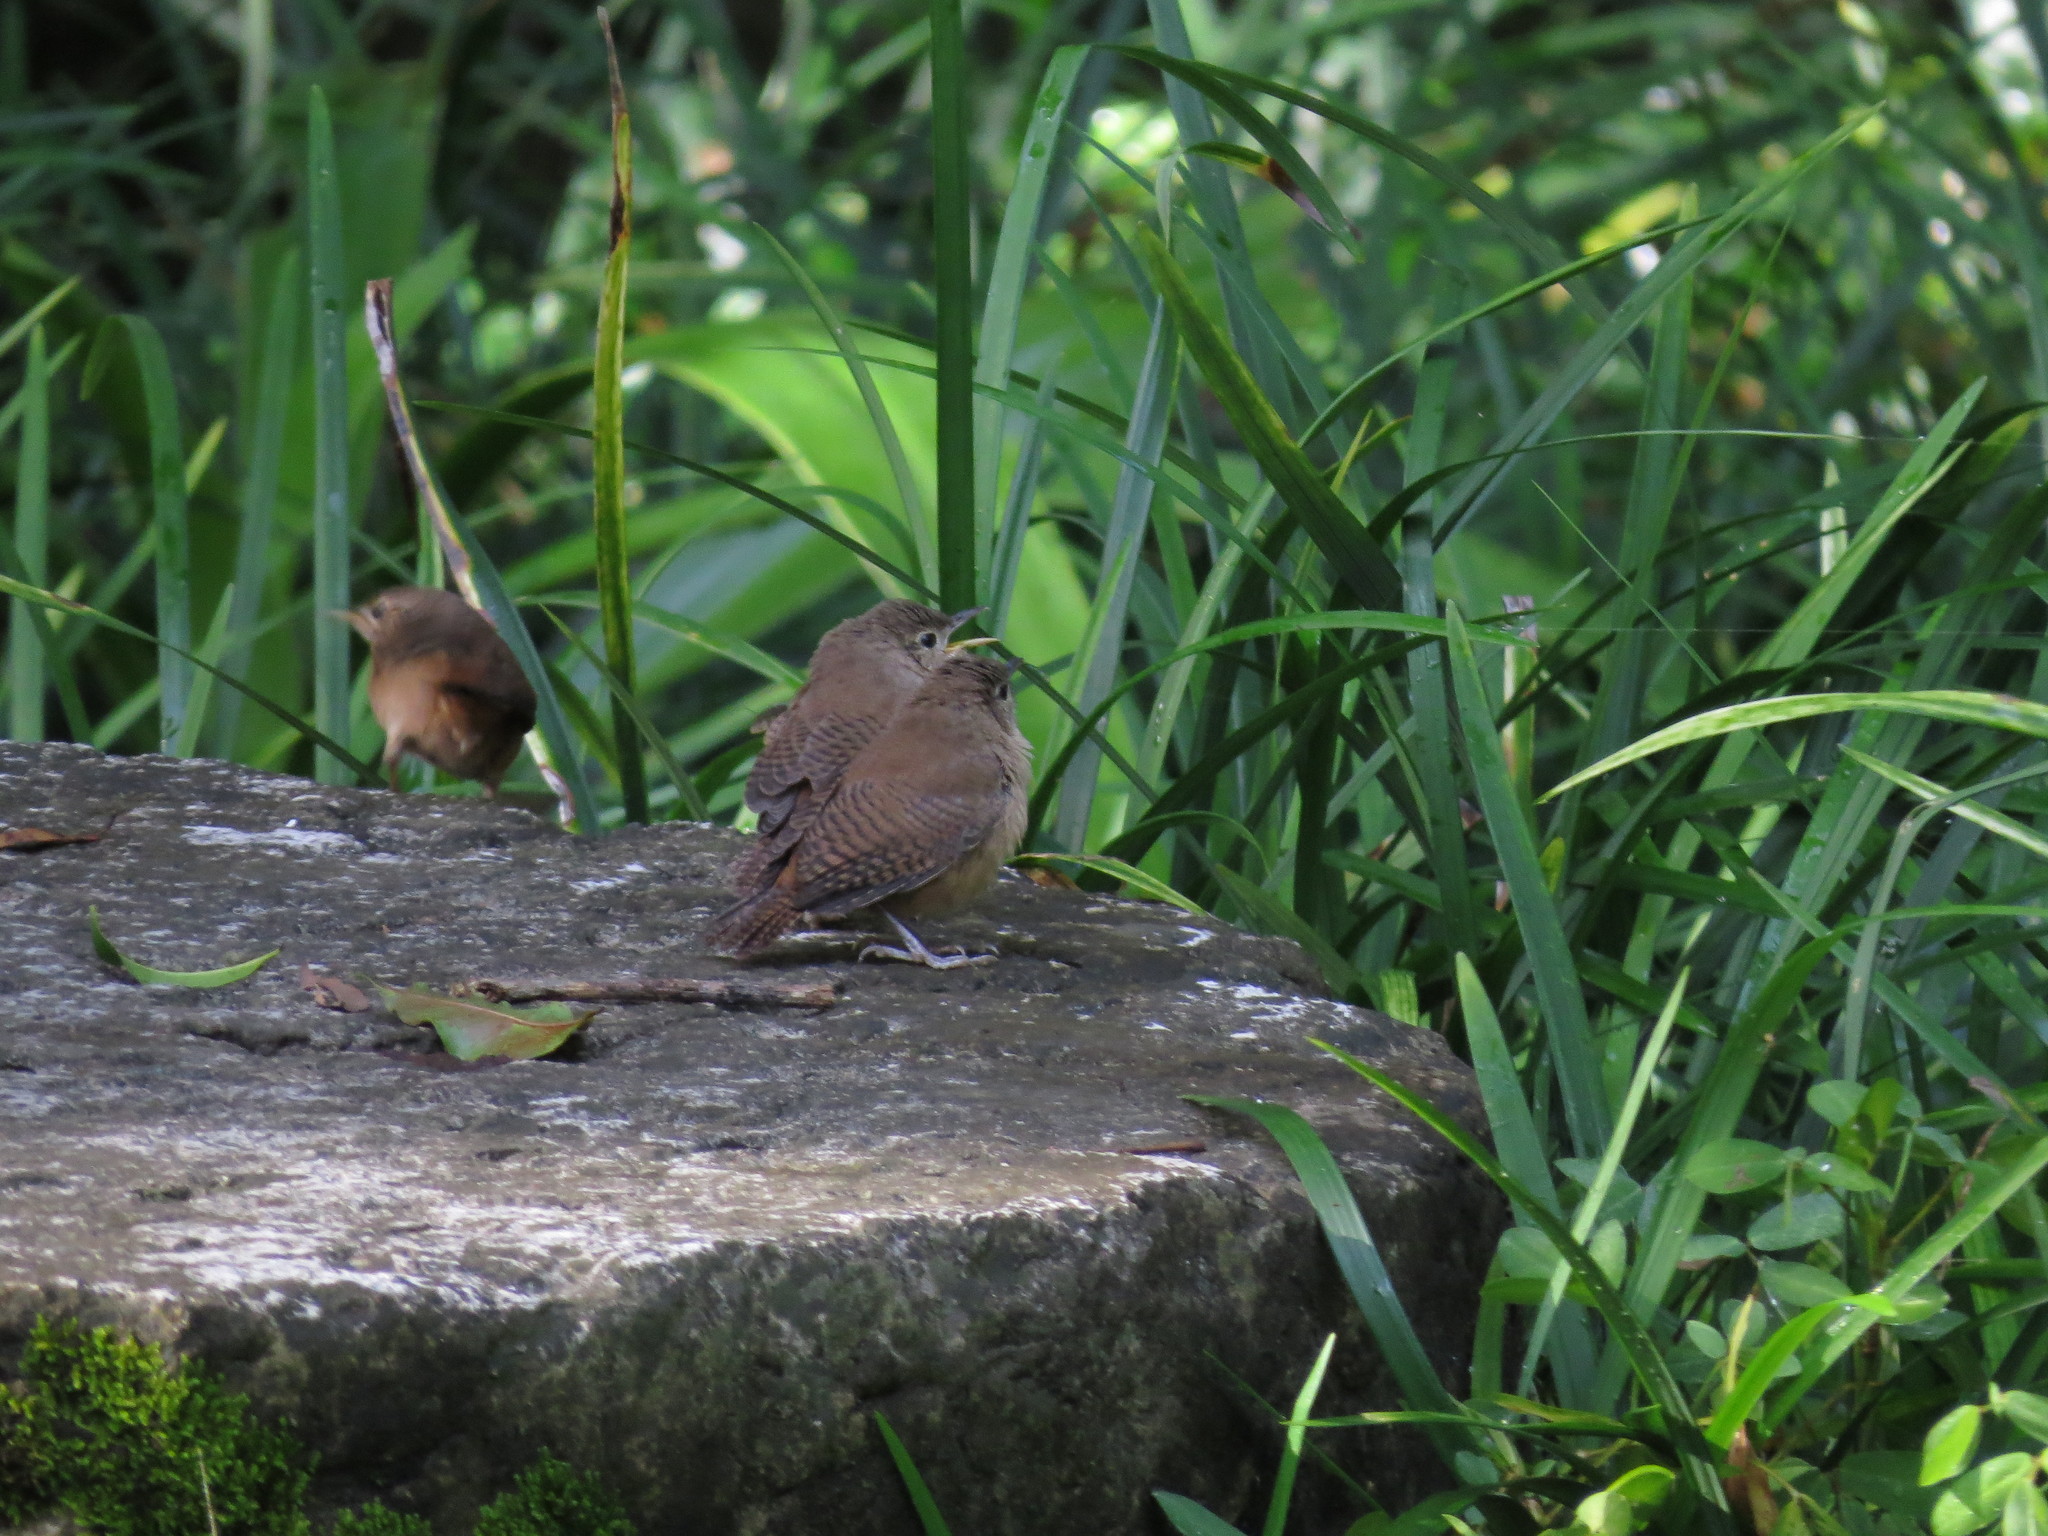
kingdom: Animalia
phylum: Chordata
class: Aves
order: Passeriformes
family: Troglodytidae
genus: Troglodytes
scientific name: Troglodytes aedon
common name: House wren
